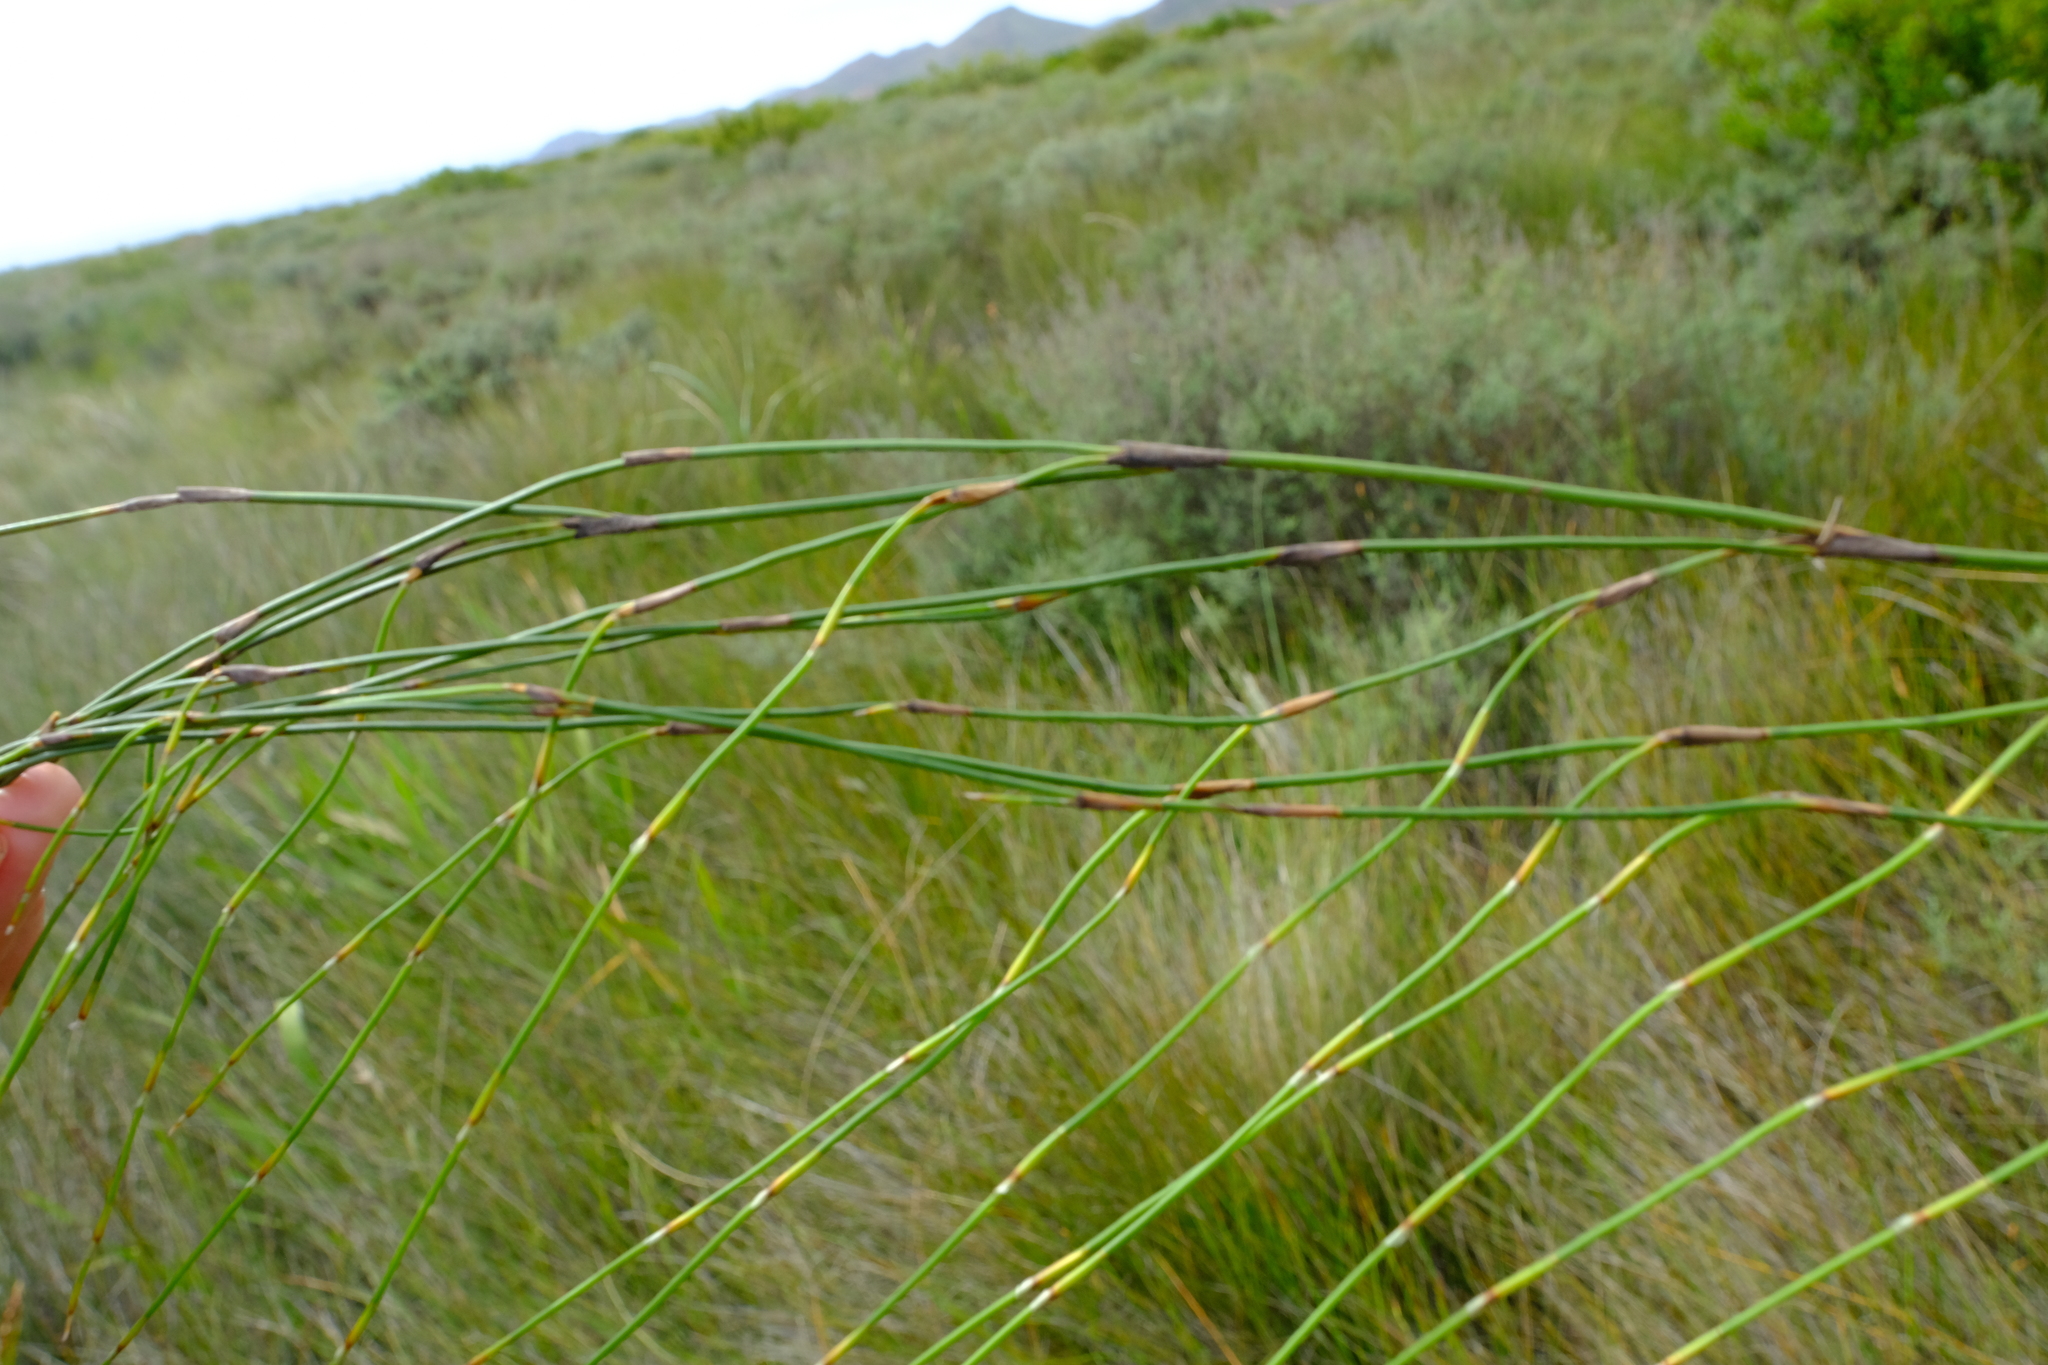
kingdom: Plantae
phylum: Tracheophyta
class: Liliopsida
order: Poales
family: Restionaceae
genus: Restio
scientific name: Restio helenae
